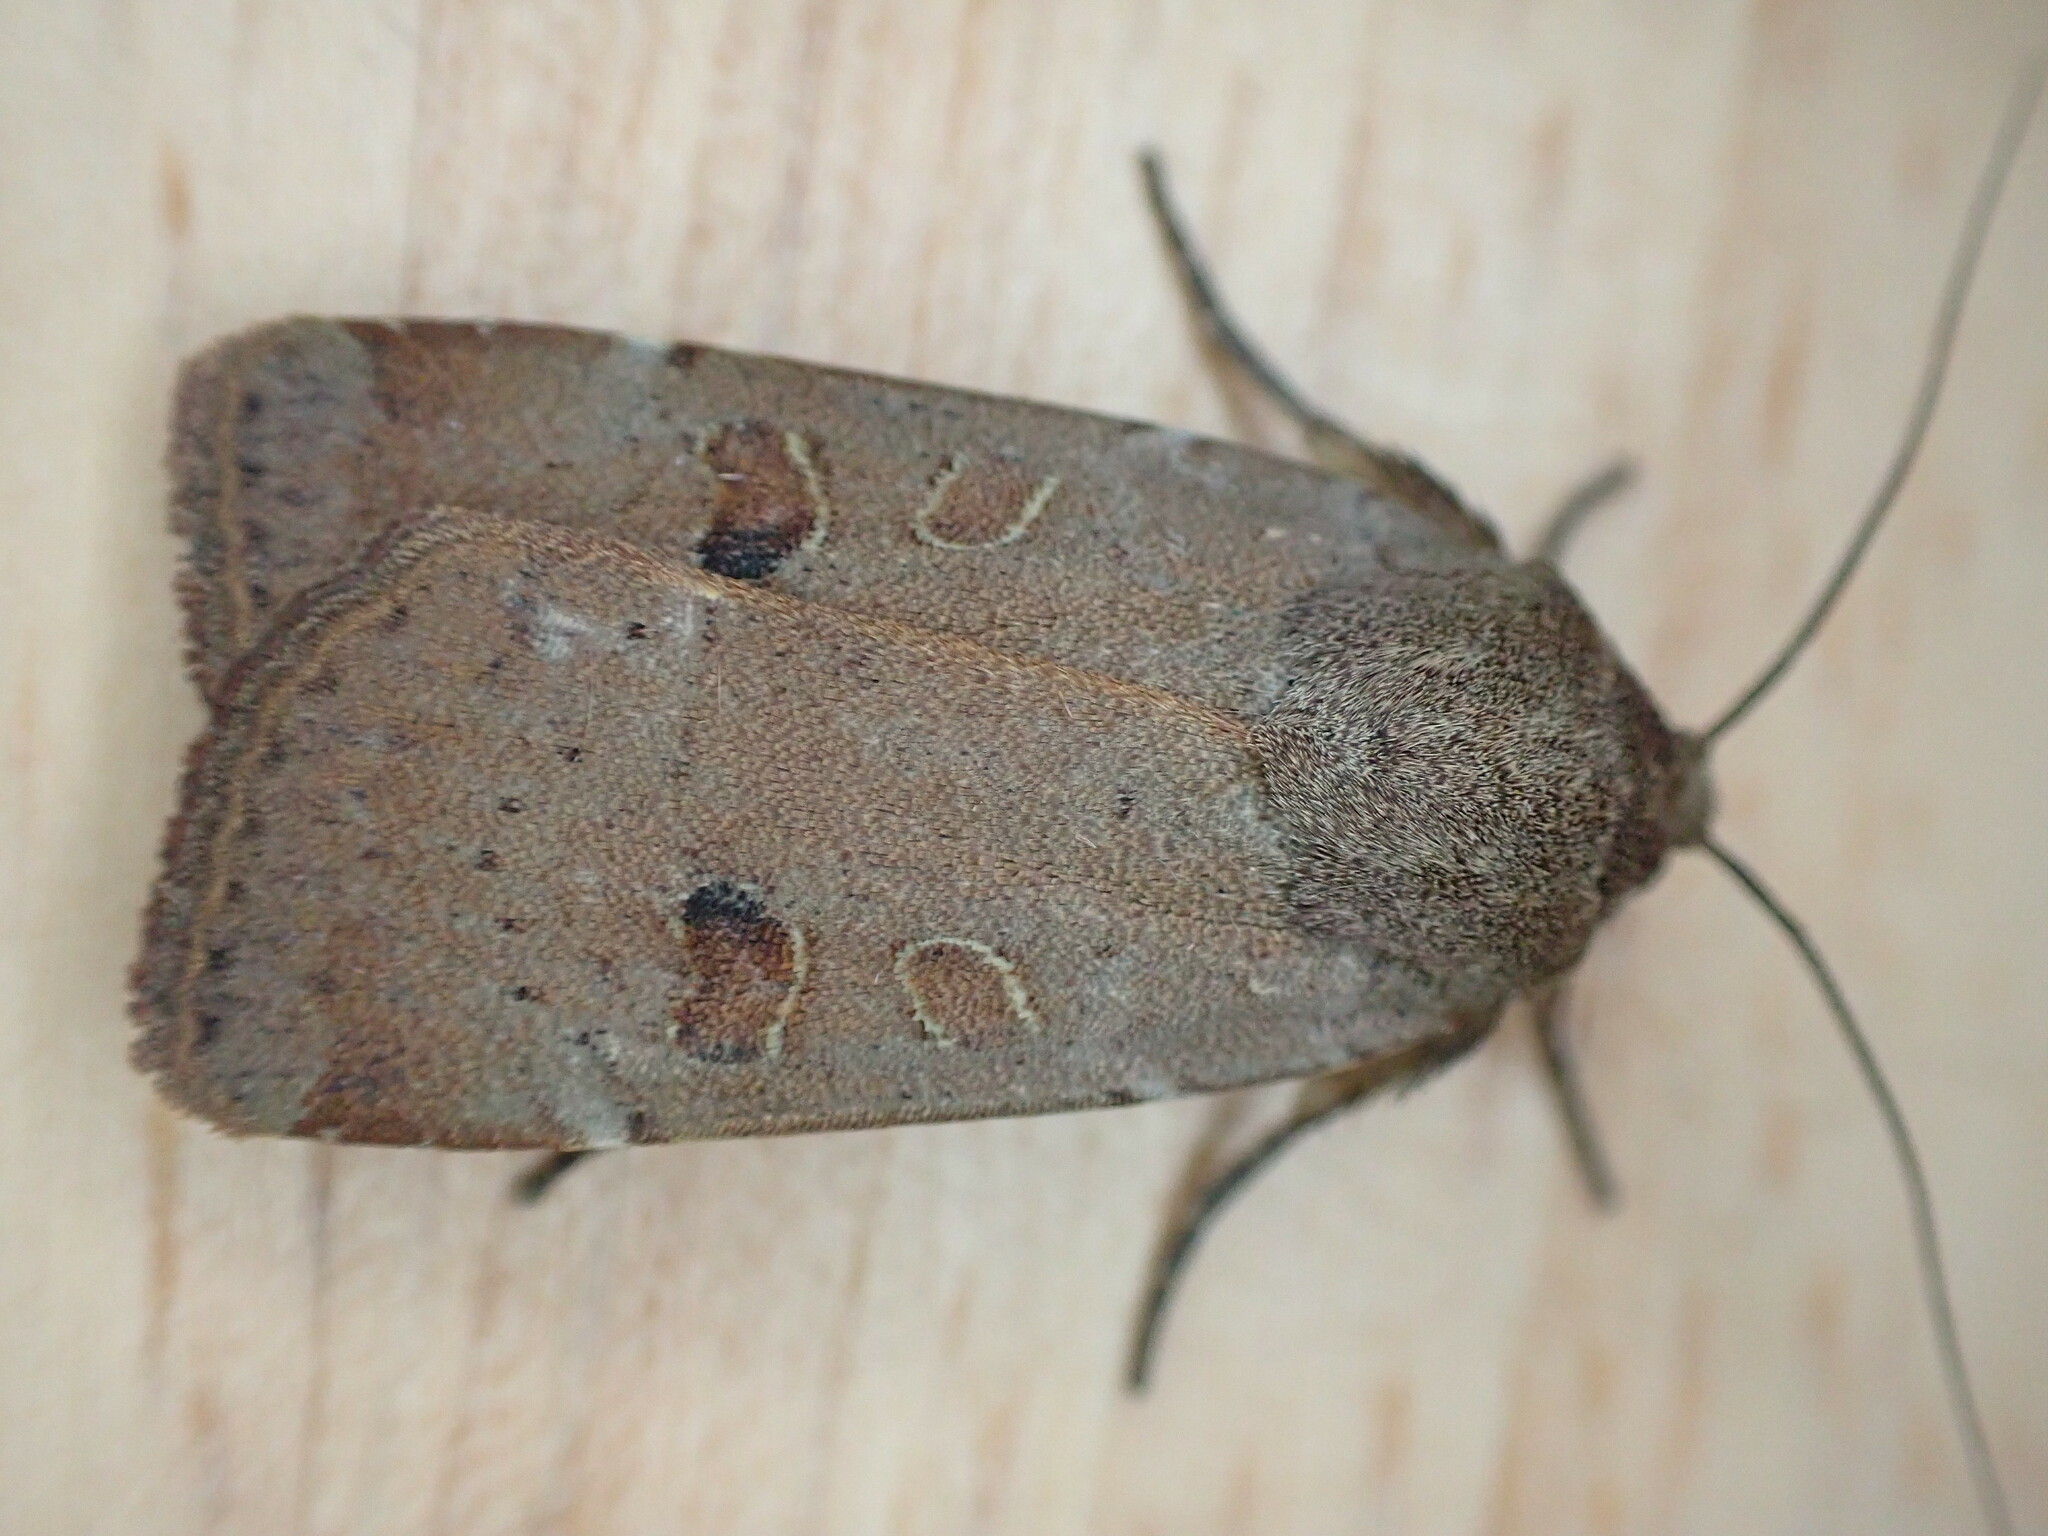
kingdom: Animalia
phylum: Arthropoda
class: Insecta
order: Lepidoptera
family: Noctuidae
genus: Noctua
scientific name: Noctua comes
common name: Lesser yellow underwing
